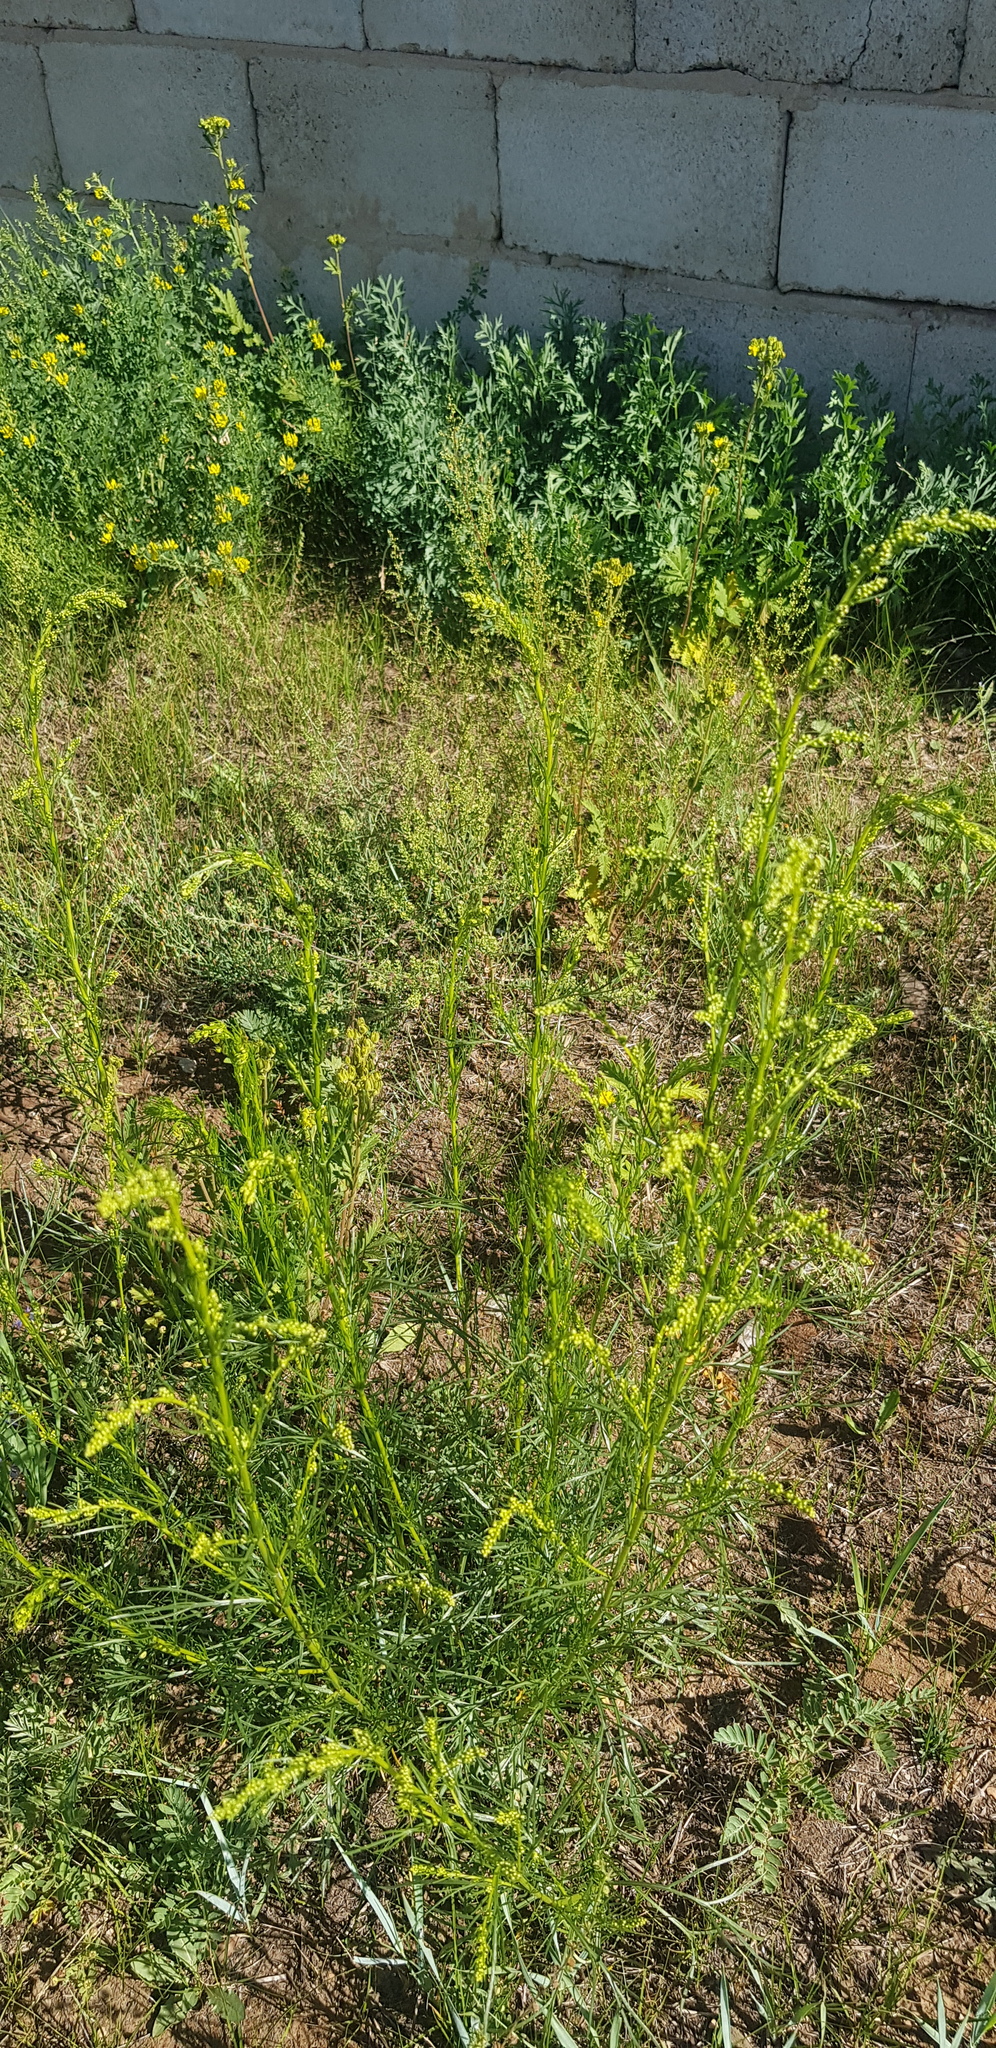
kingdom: Plantae
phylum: Tracheophyta
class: Magnoliopsida
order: Asterales
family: Asteraceae
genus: Artemisia
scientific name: Artemisia dracunculus
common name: Tarragon
